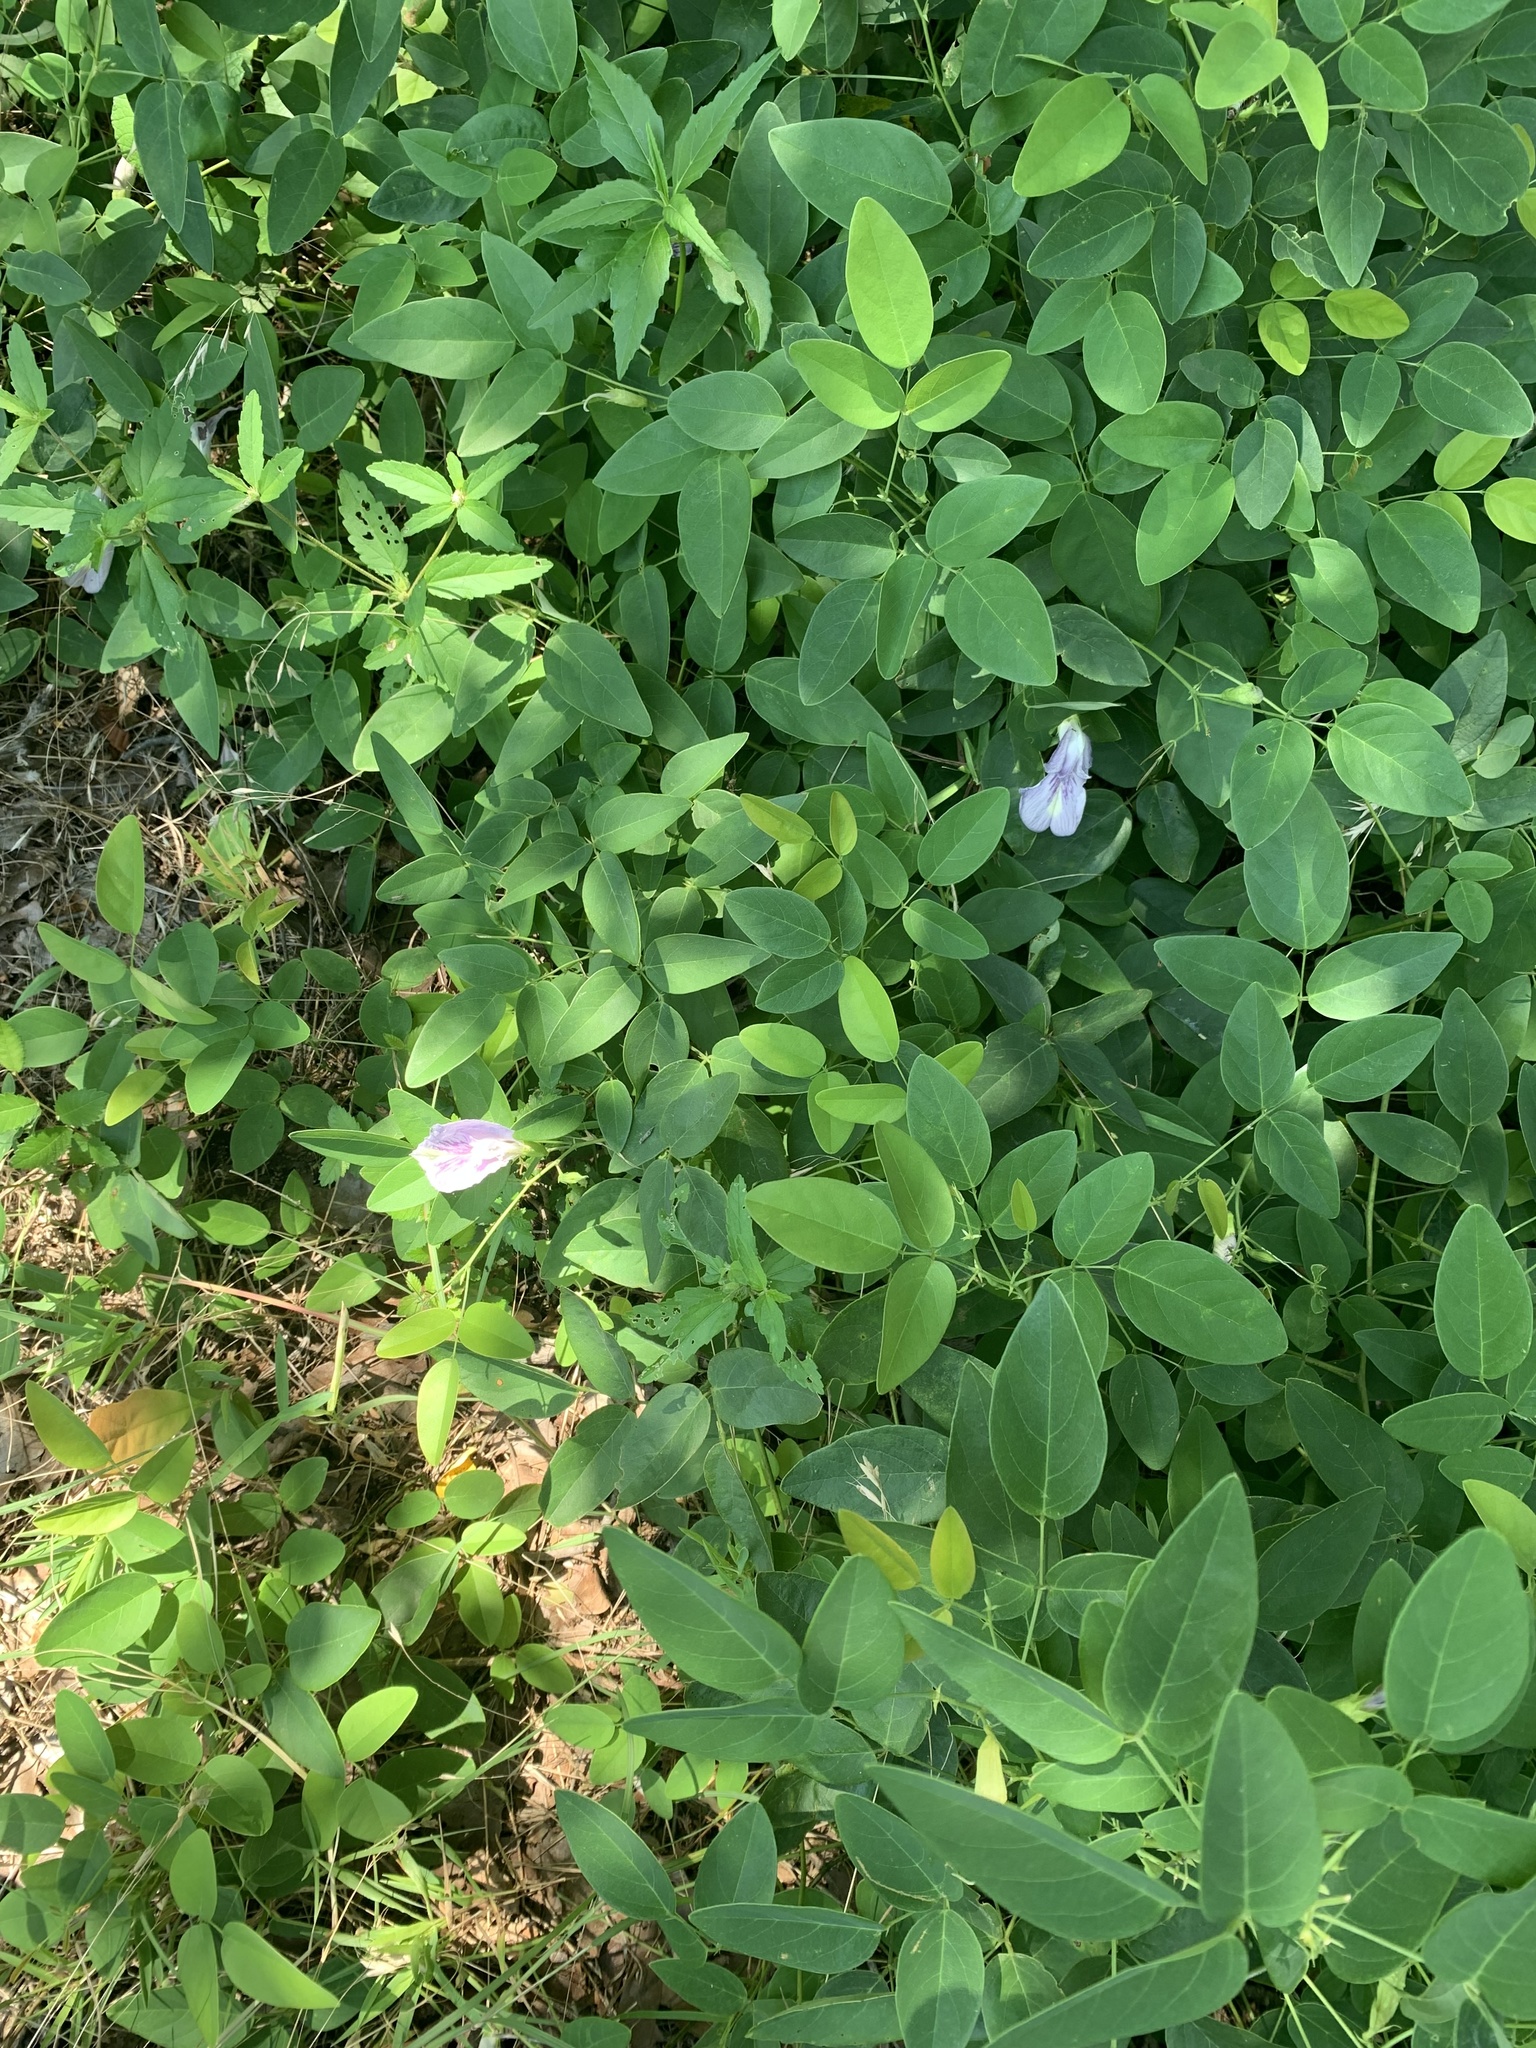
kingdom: Plantae
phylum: Tracheophyta
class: Magnoliopsida
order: Fabales
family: Fabaceae
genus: Clitoria
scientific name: Clitoria mariana
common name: Butterfly-pea
